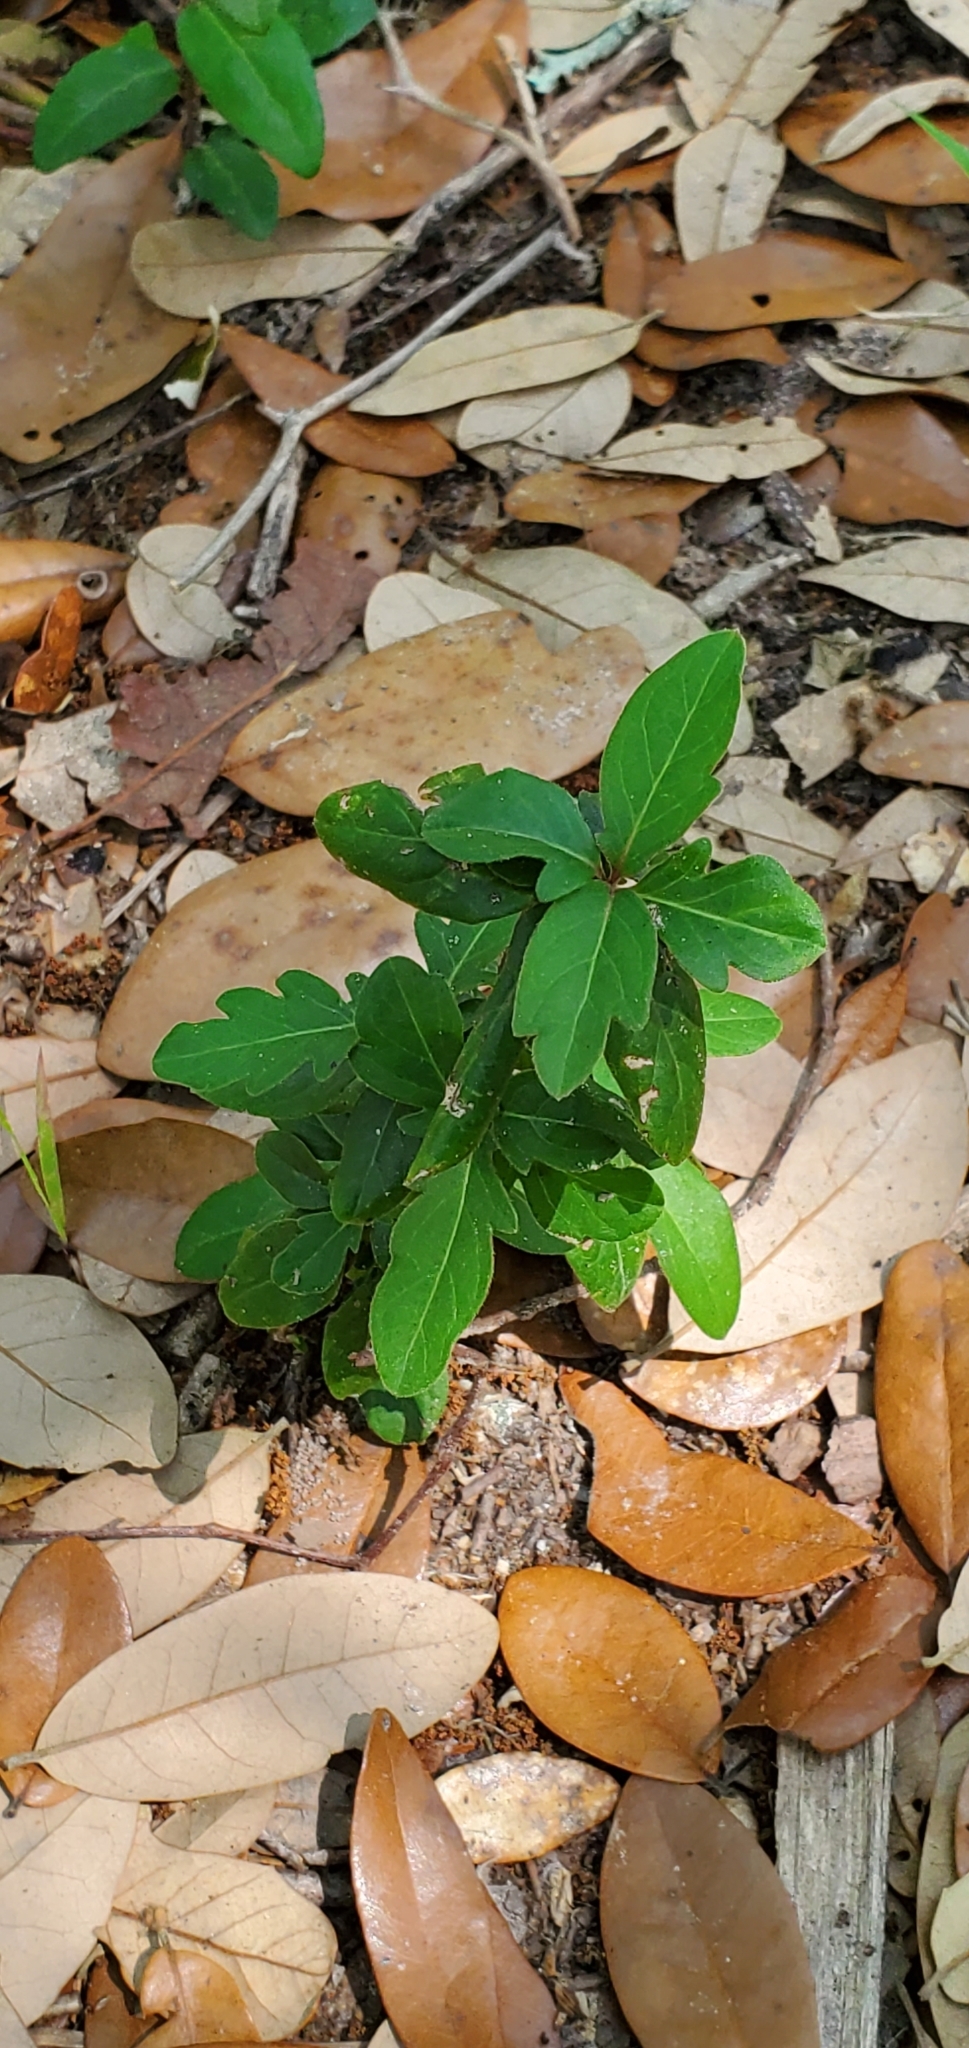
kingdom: Plantae
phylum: Tracheophyta
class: Magnoliopsida
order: Dipsacales
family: Caprifoliaceae
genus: Lonicera
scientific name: Lonicera japonica
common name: Japanese honeysuckle
